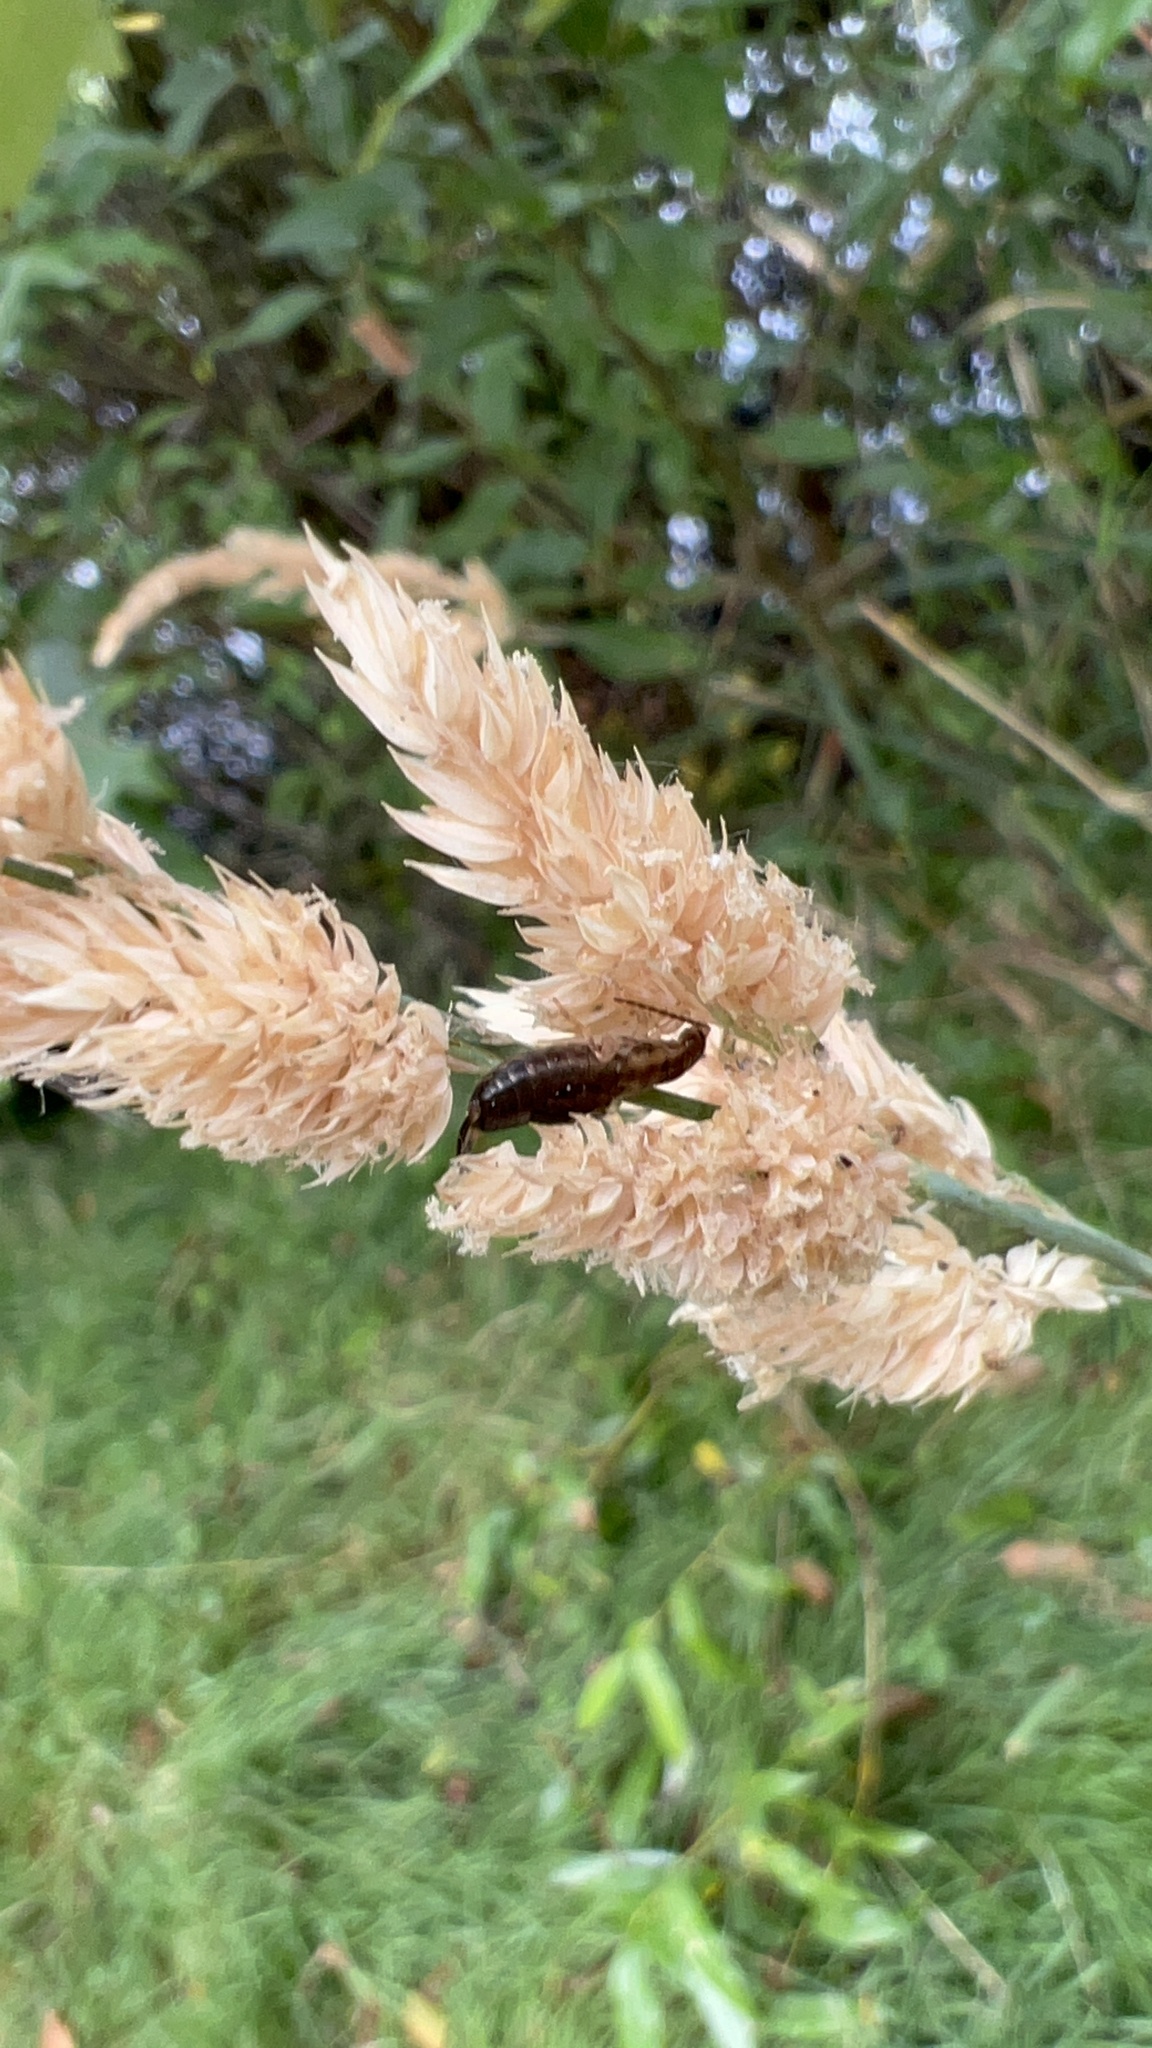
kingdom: Animalia
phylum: Arthropoda
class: Insecta
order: Dermaptera
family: Forficulidae
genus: Forficula
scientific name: Forficula
